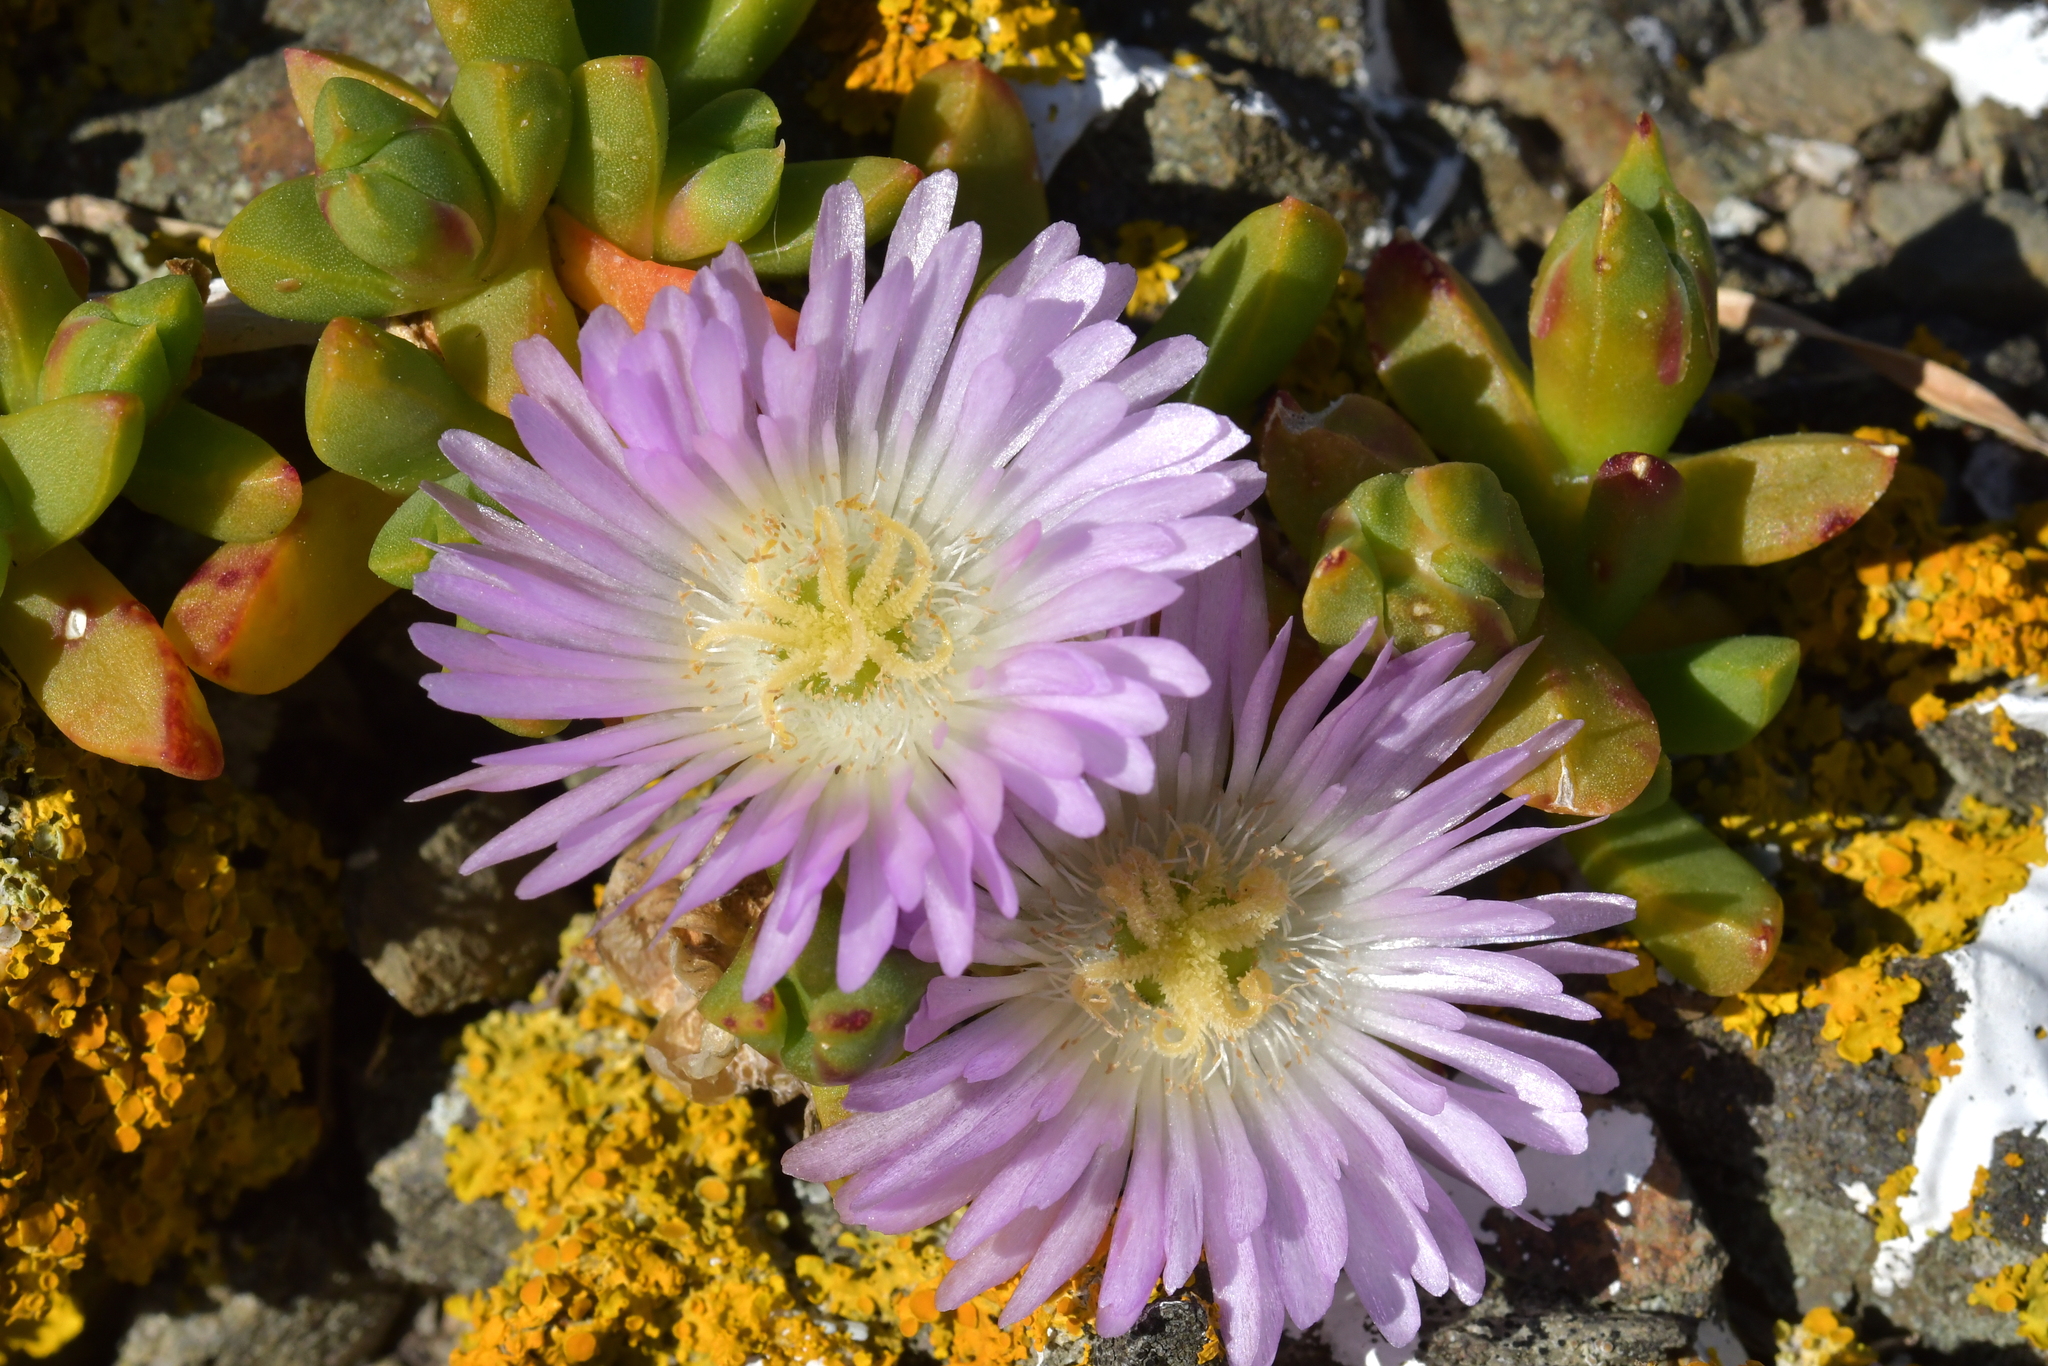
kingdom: Plantae
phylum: Tracheophyta
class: Magnoliopsida
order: Caryophyllales
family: Aizoaceae
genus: Disphyma
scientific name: Disphyma australe
